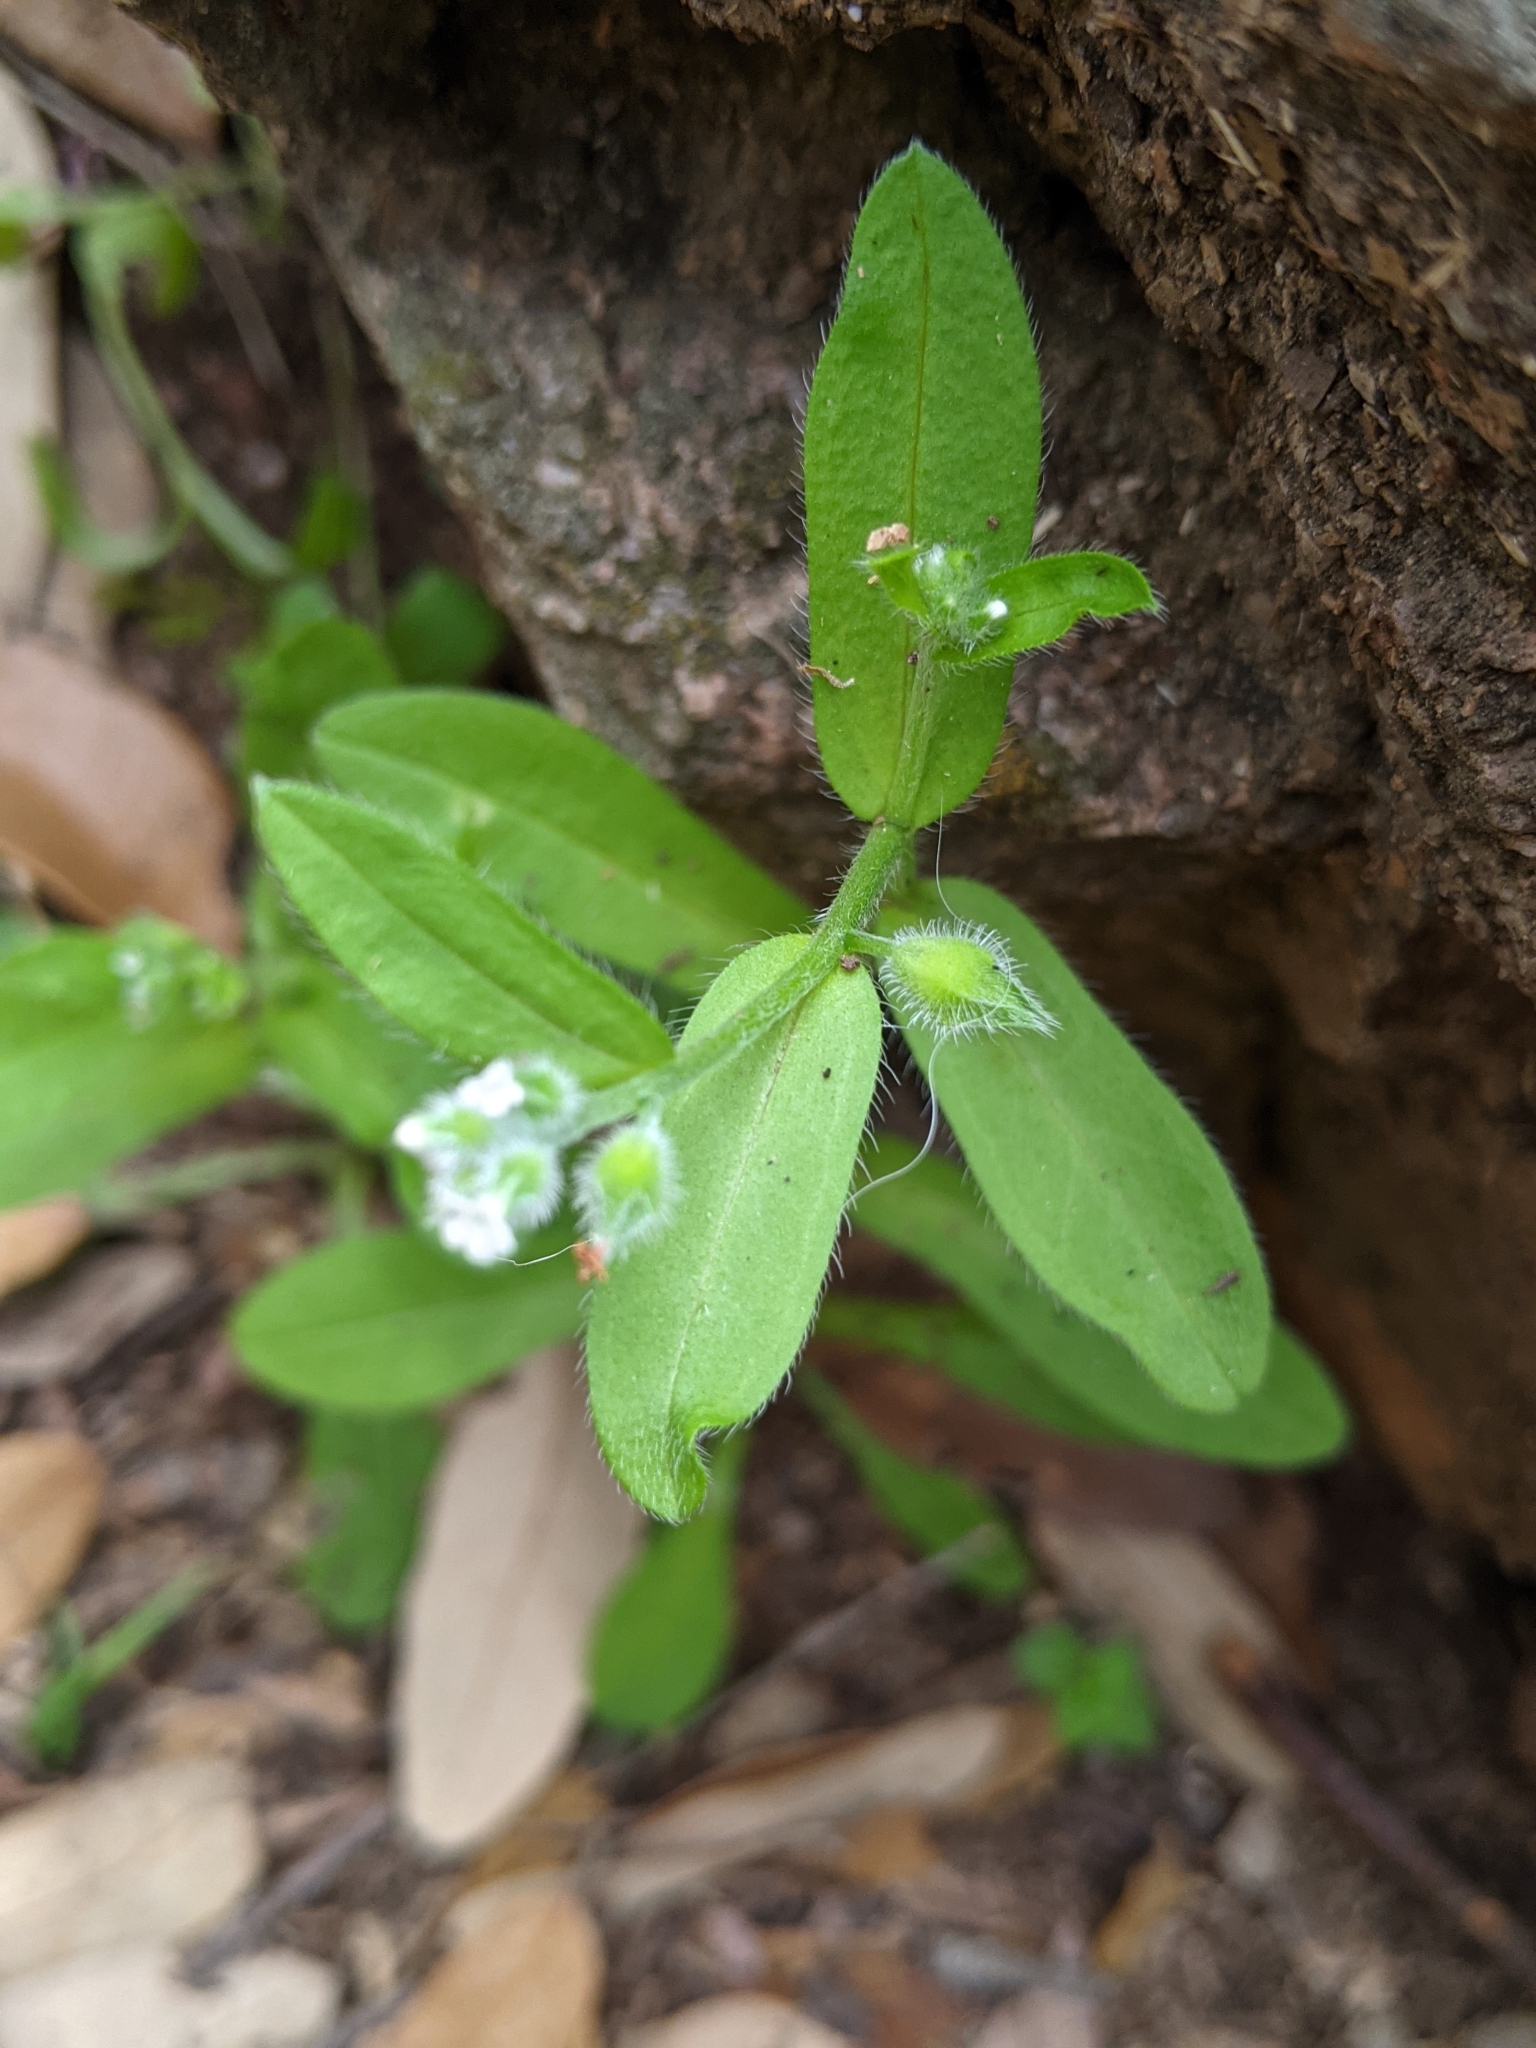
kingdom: Plantae
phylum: Tracheophyta
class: Magnoliopsida
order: Boraginales
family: Boraginaceae
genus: Myosotis
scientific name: Myosotis macrosperma
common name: Large-seed forget-me-not
